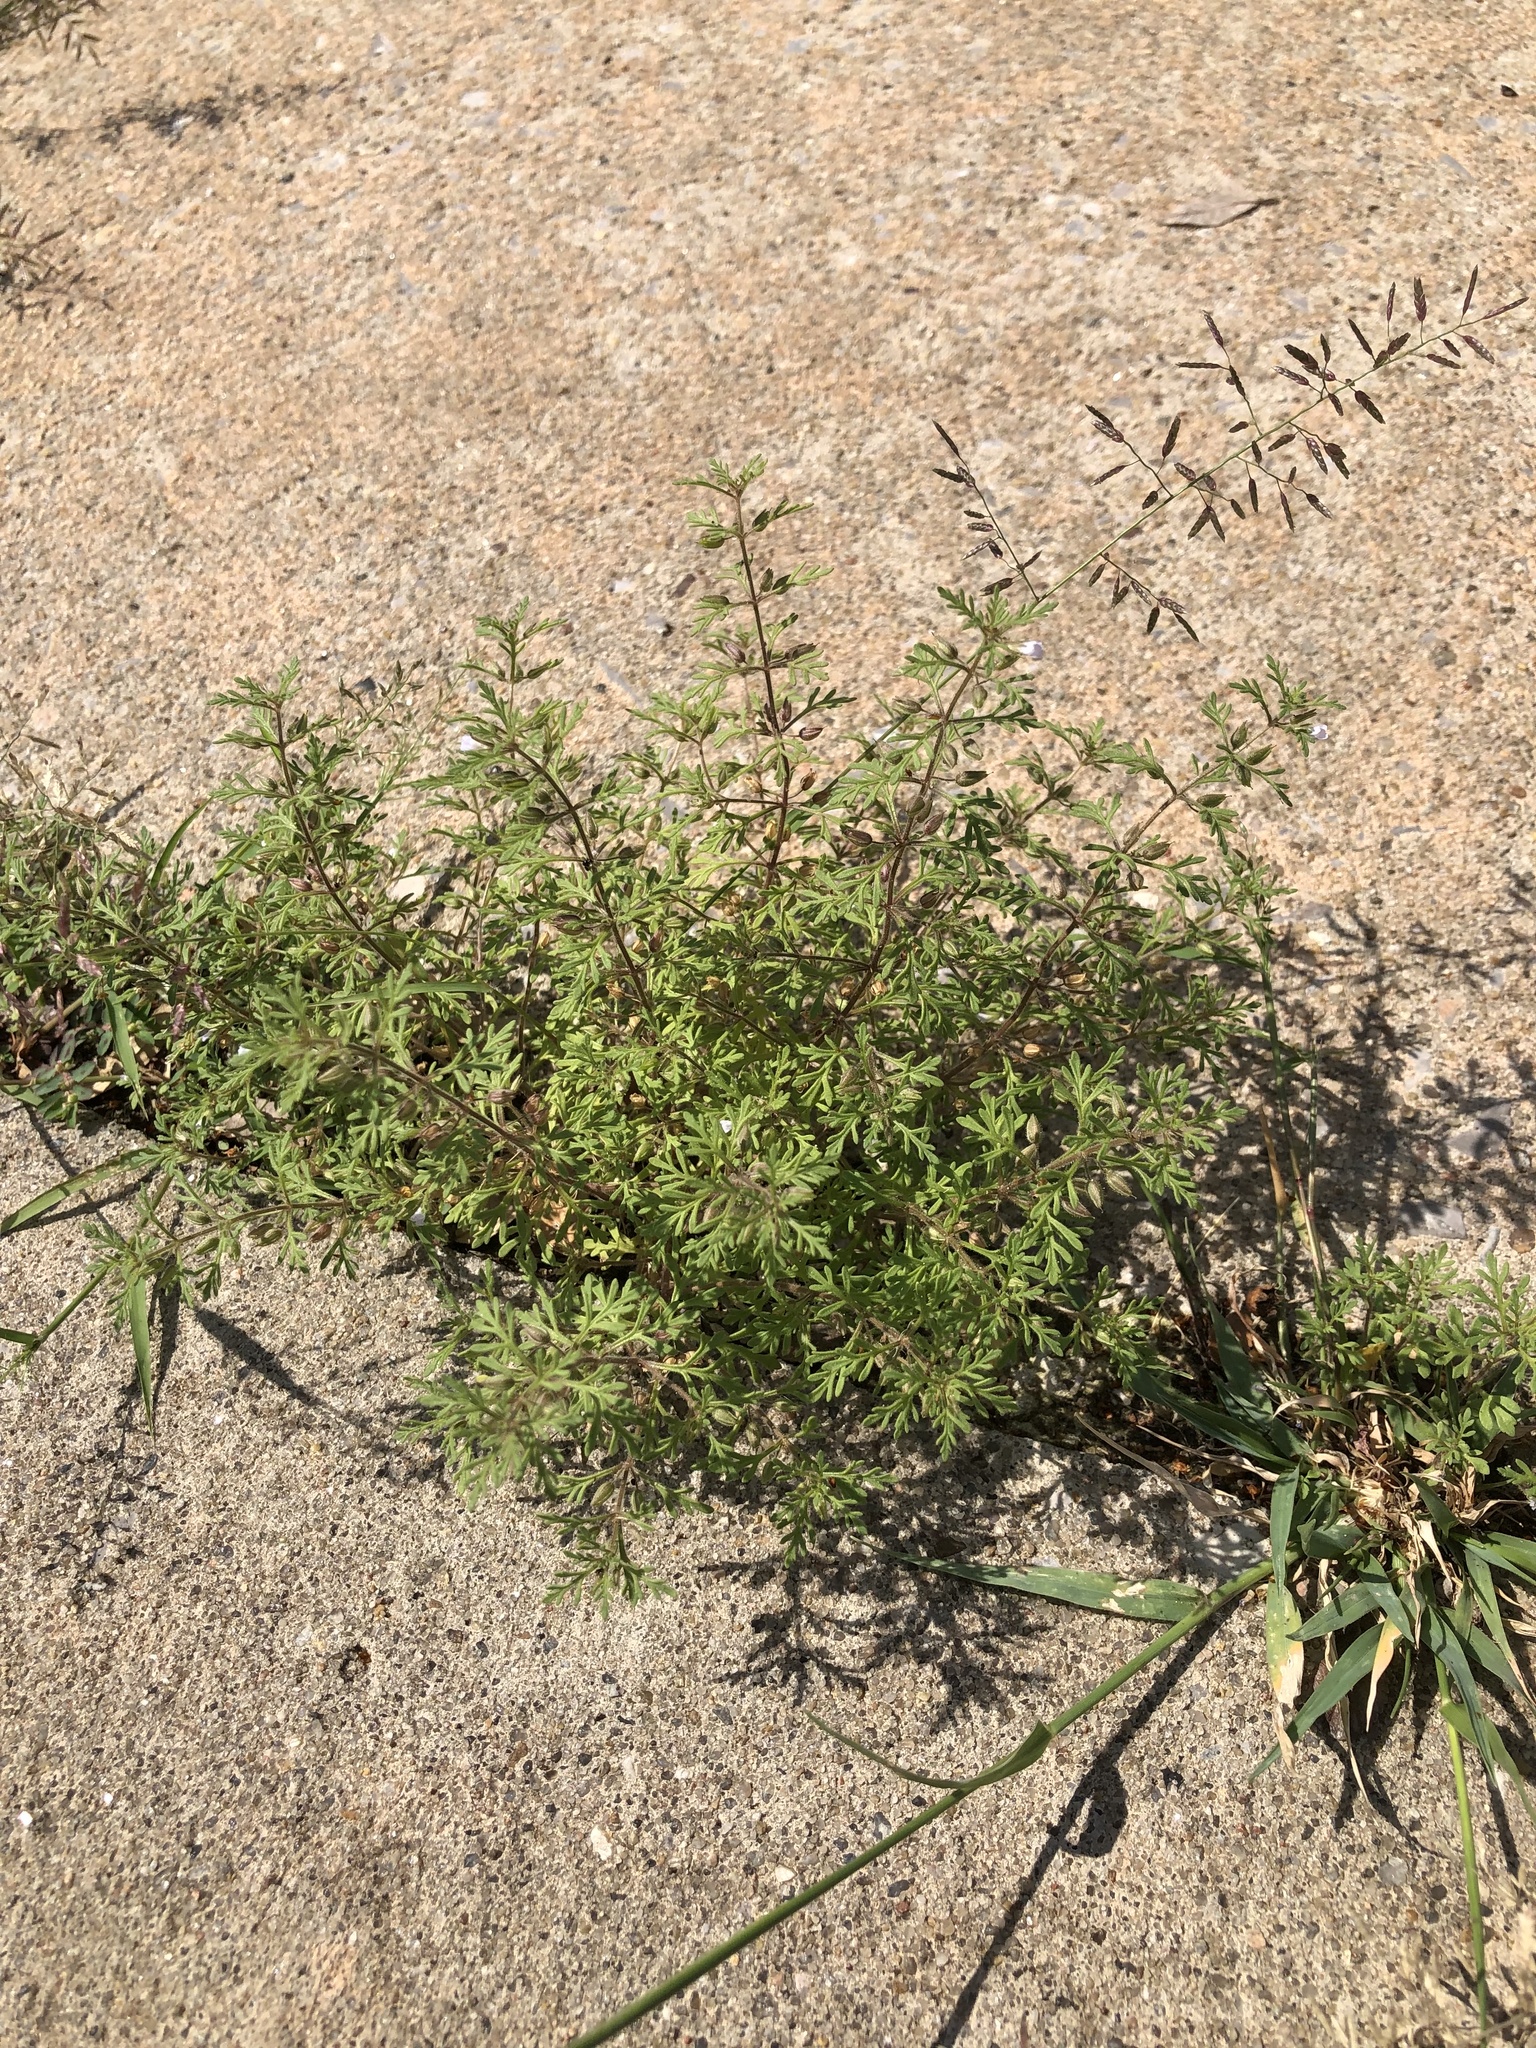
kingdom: Plantae
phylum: Tracheophyta
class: Magnoliopsida
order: Lamiales
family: Plantaginaceae
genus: Leucospora
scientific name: Leucospora multifida
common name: Narrow-leaf paleseed
